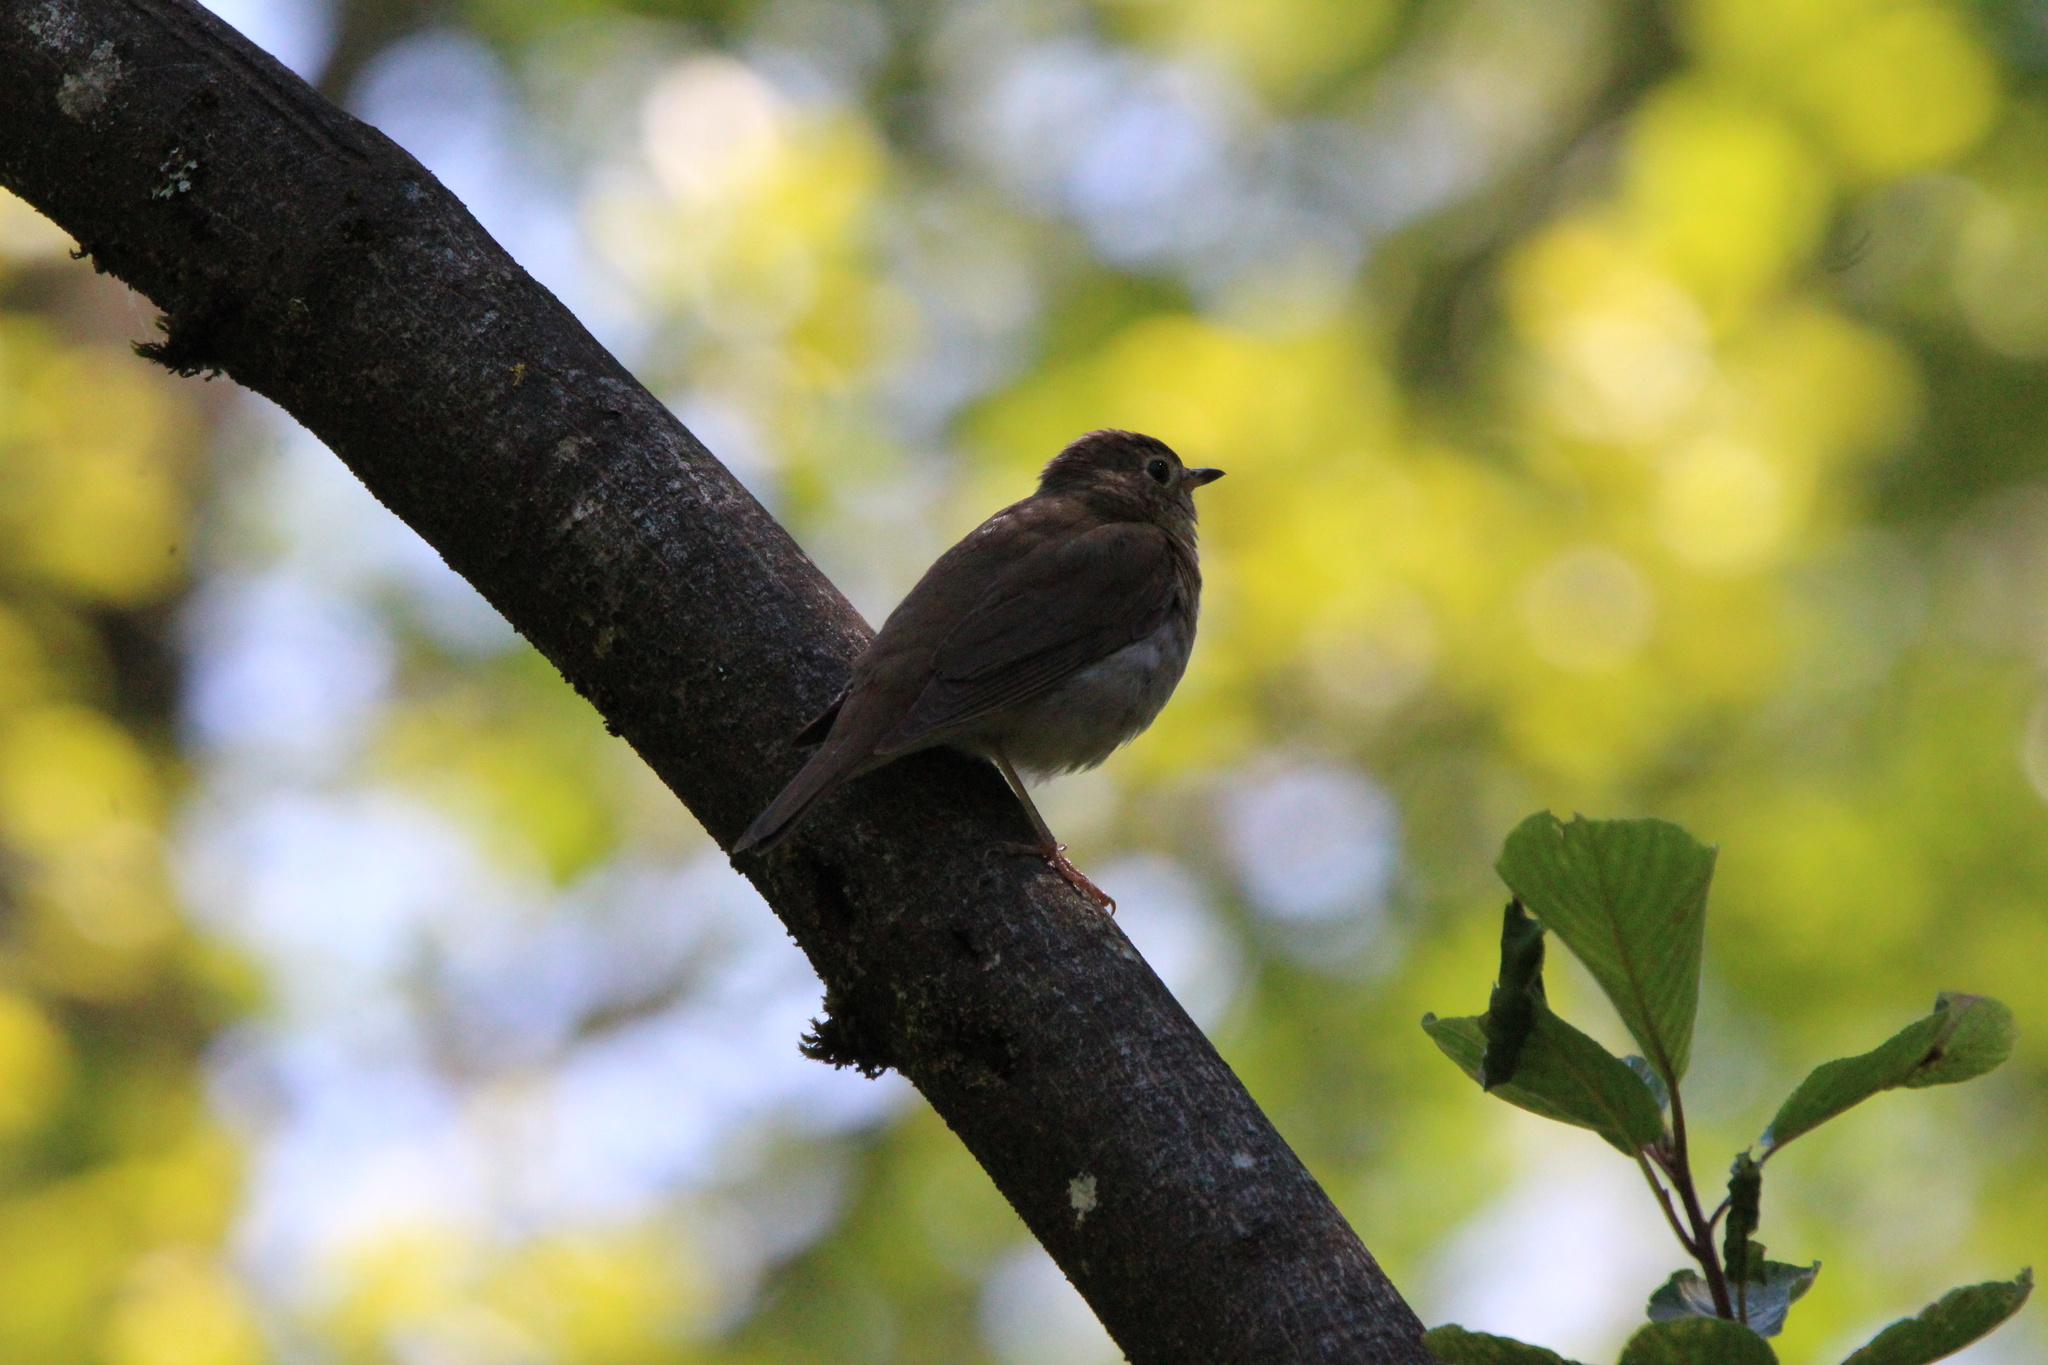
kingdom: Animalia
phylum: Chordata
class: Aves
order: Passeriformes
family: Turdidae
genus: Catharus
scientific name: Catharus ustulatus
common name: Swainson's thrush
